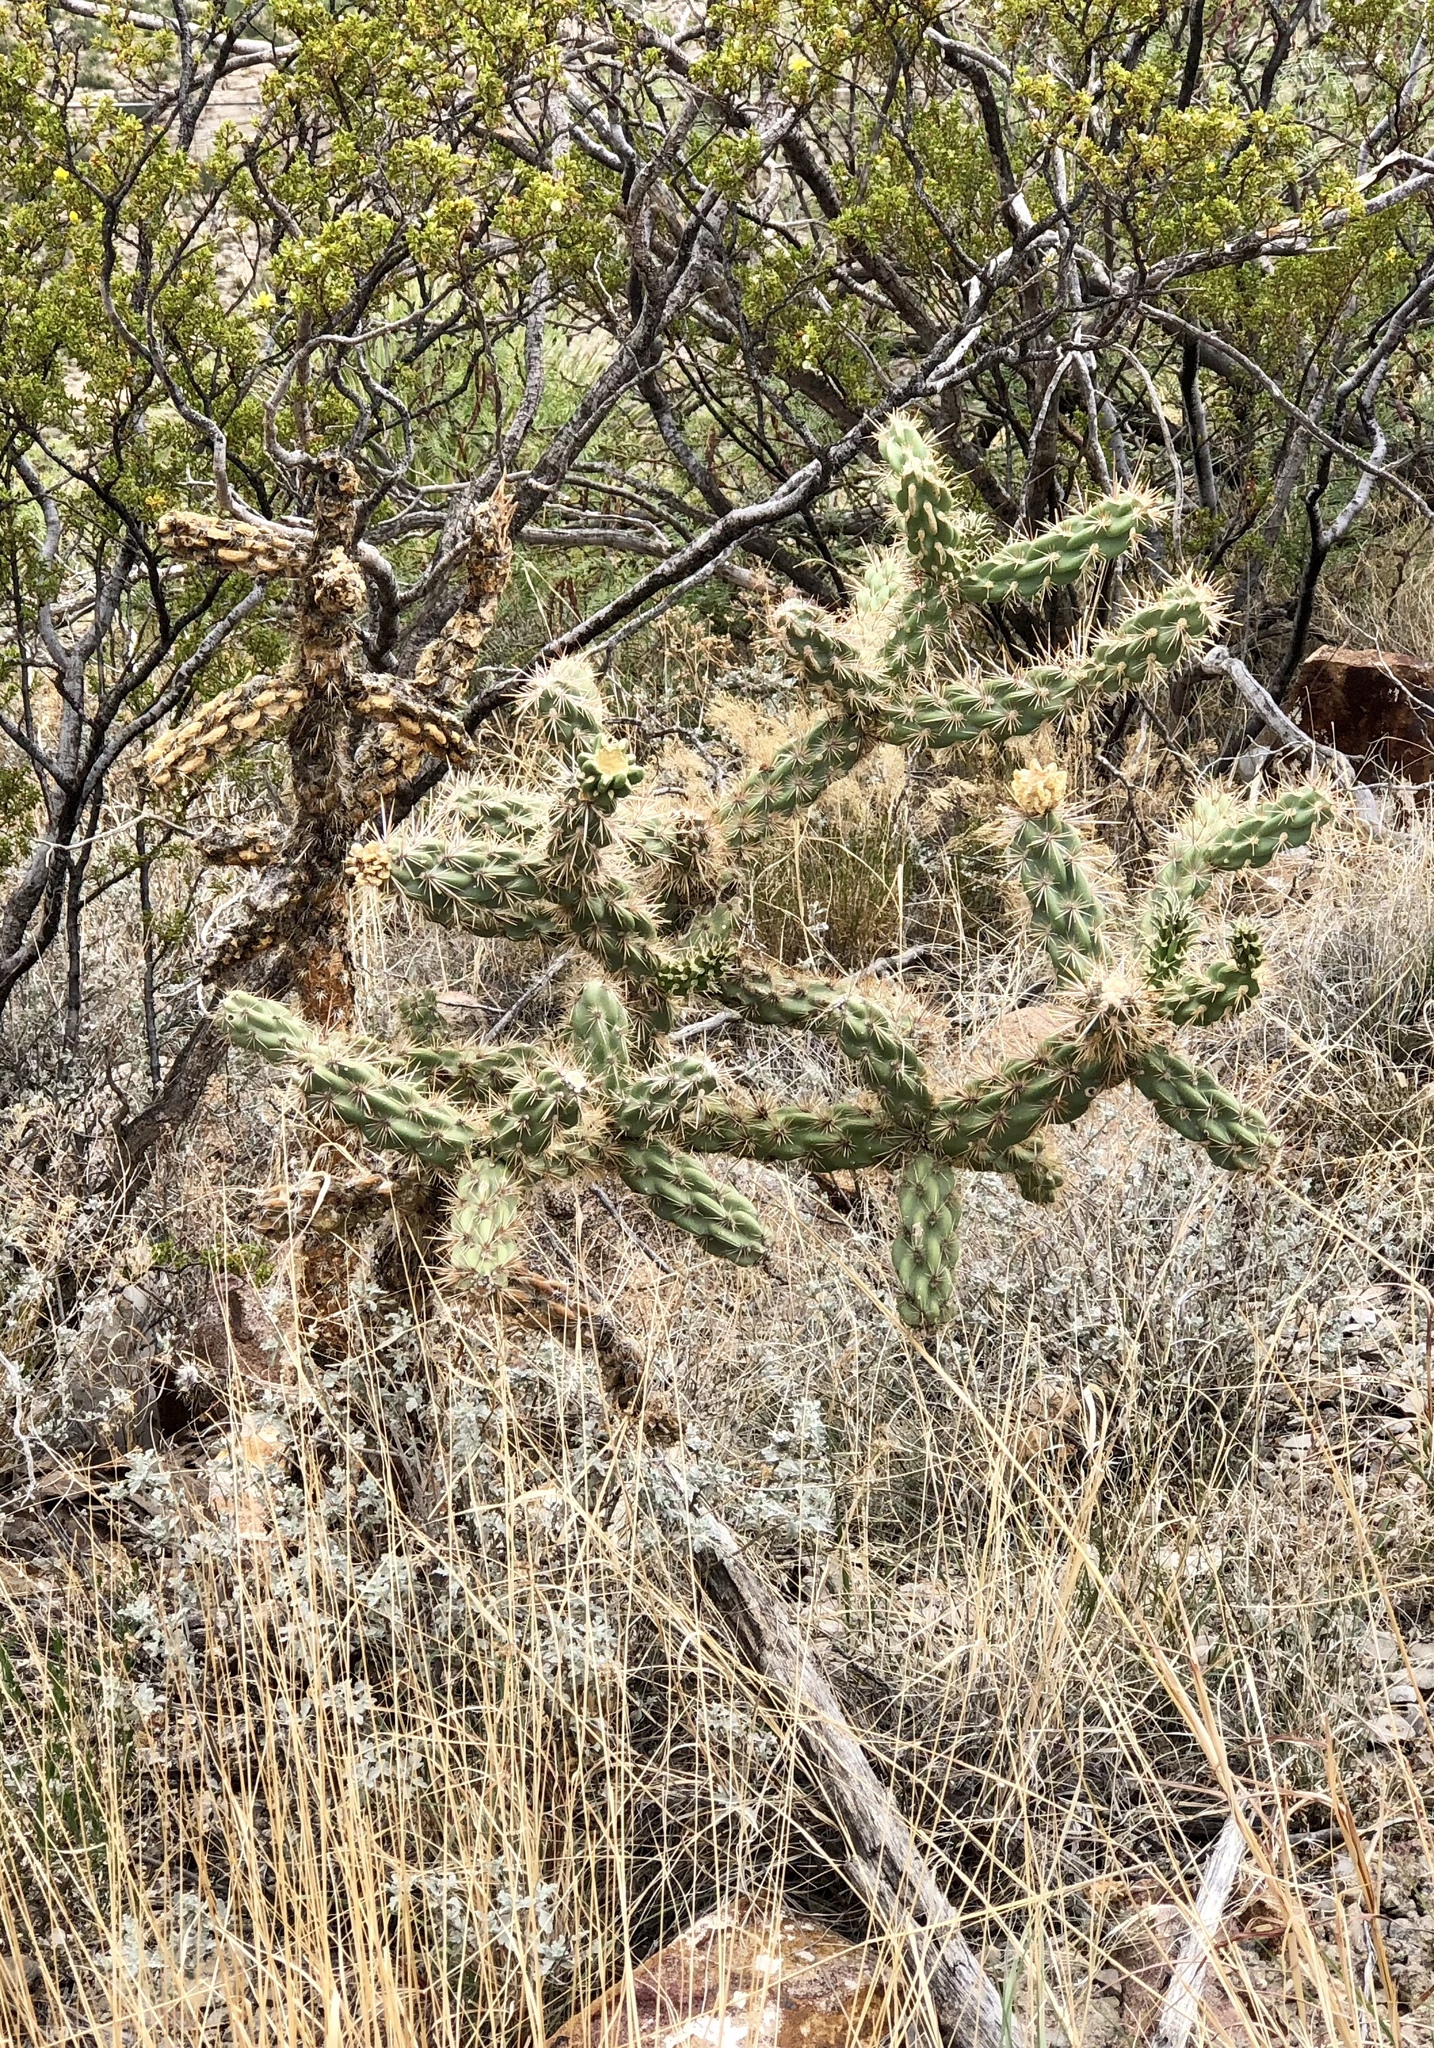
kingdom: Plantae
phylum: Tracheophyta
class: Magnoliopsida
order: Caryophyllales
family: Cactaceae
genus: Cylindropuntia
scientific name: Cylindropuntia imbricata
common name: Candelabrum cactus
